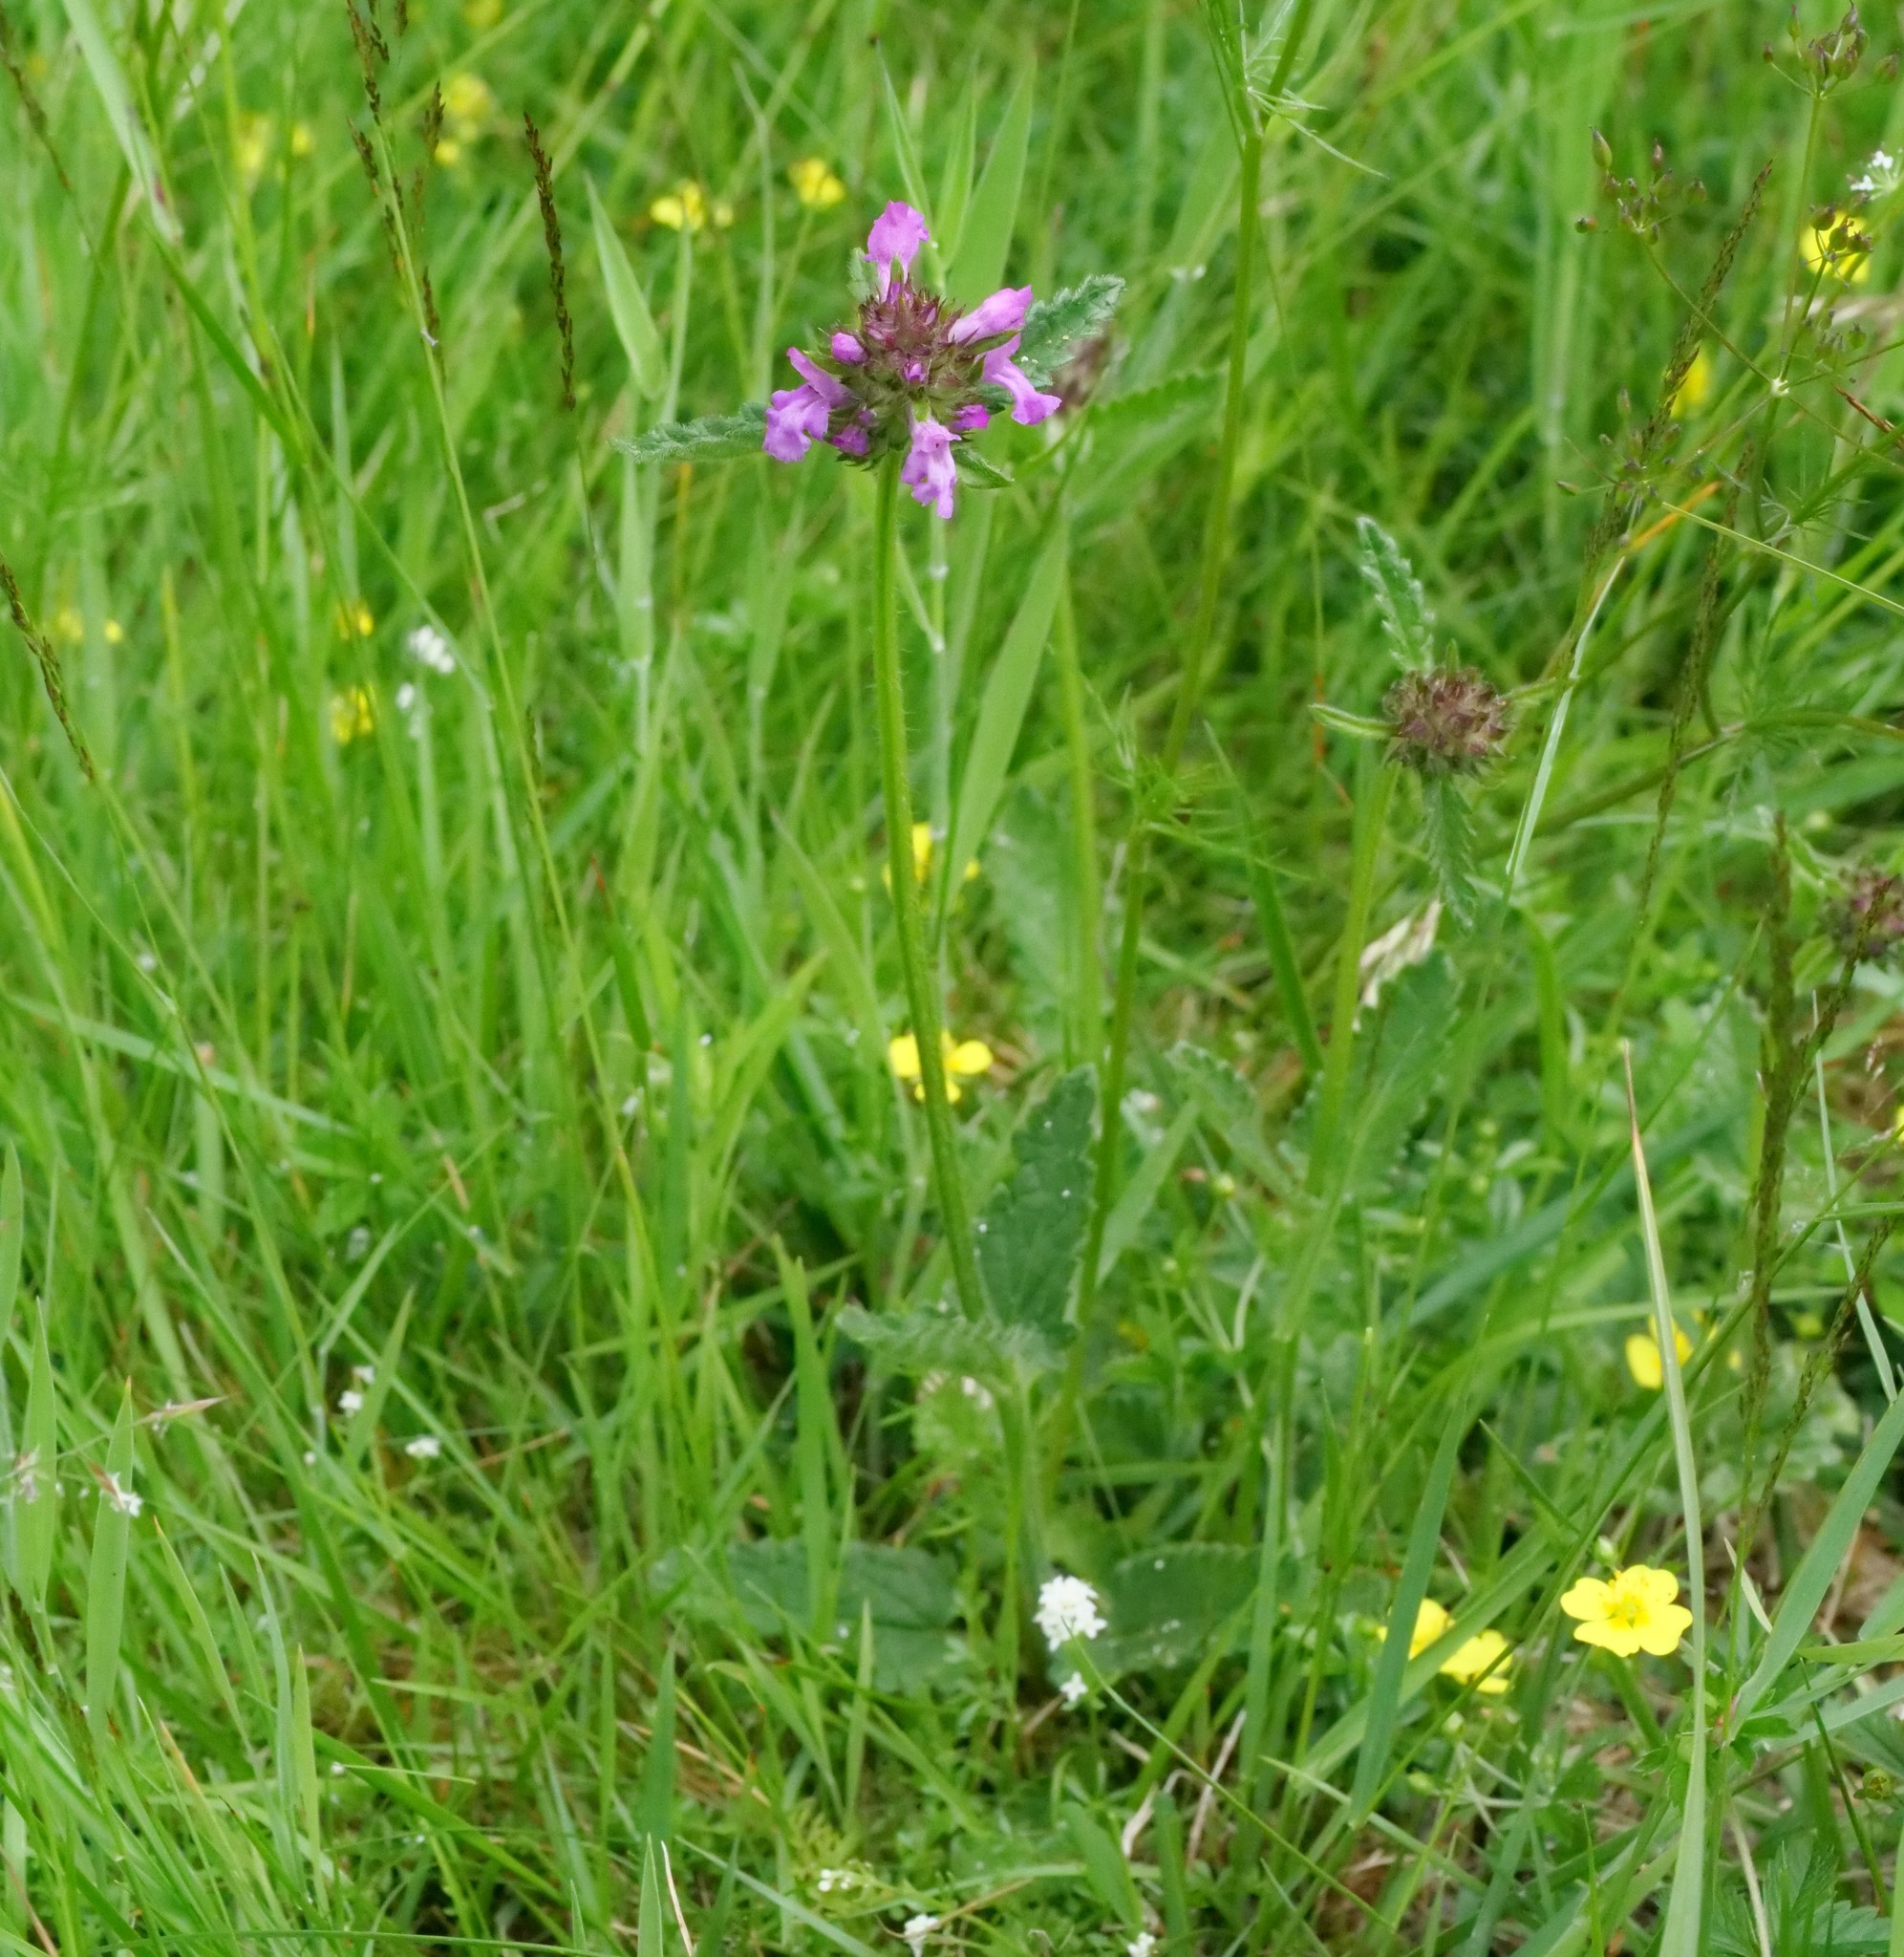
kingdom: Plantae
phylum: Tracheophyta
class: Magnoliopsida
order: Lamiales
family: Lamiaceae
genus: Betonica
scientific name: Betonica officinalis
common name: Bishop's-wort
